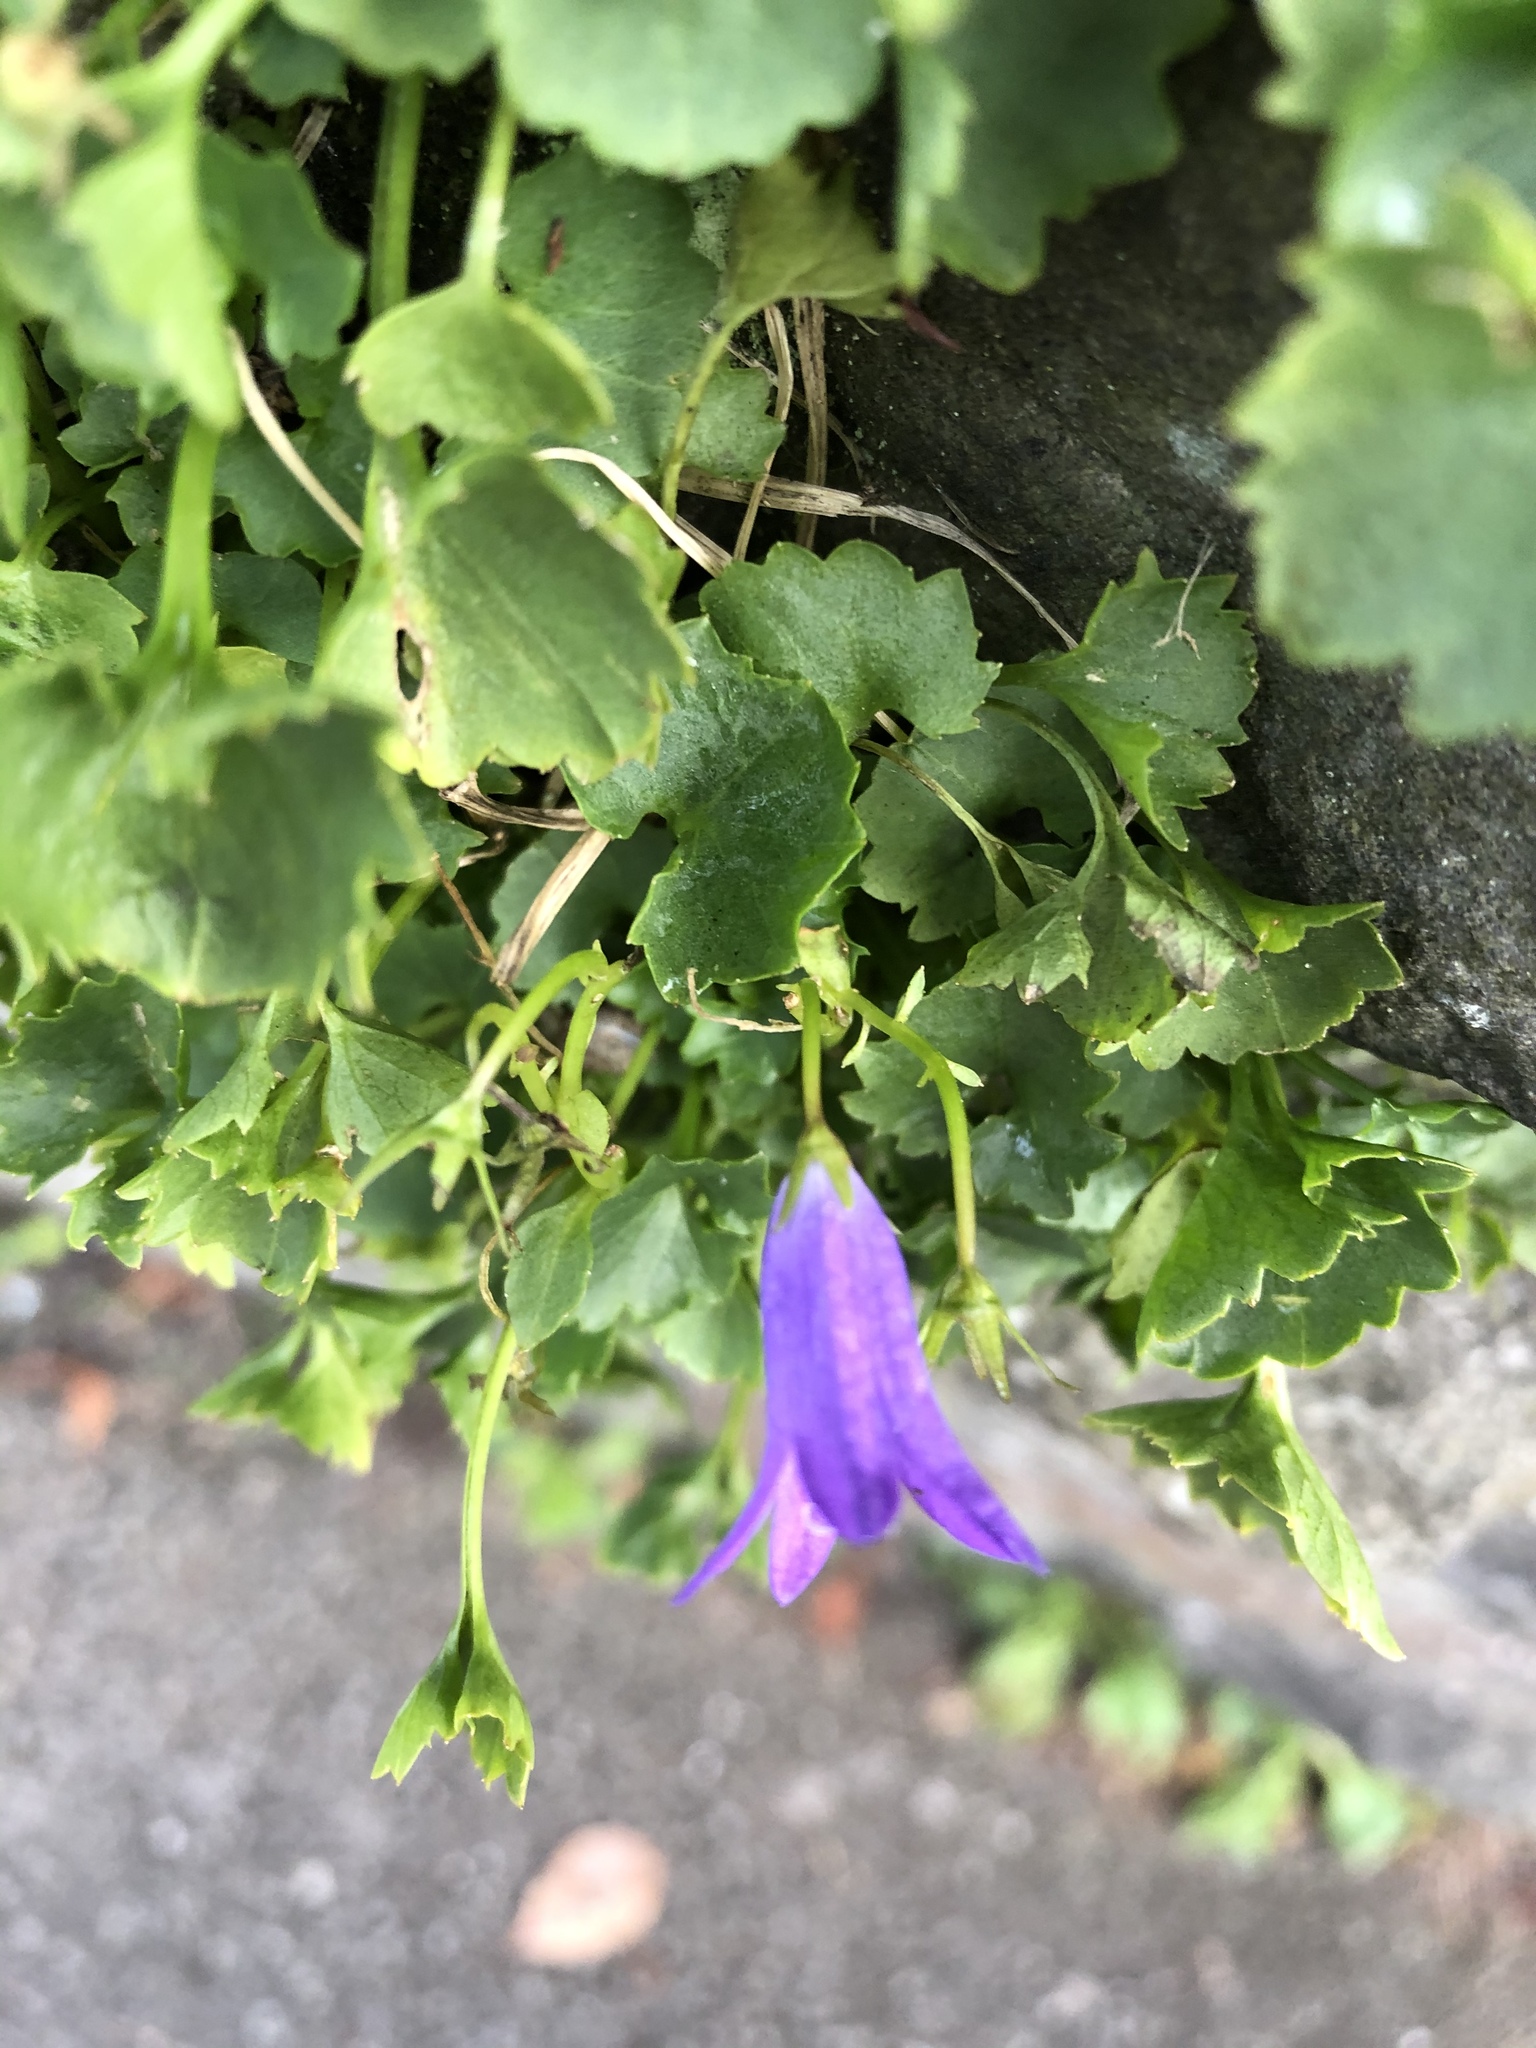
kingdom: Plantae
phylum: Tracheophyta
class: Magnoliopsida
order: Asterales
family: Campanulaceae
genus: Campanula
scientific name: Campanula portenschlagiana
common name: Adria bellflower
